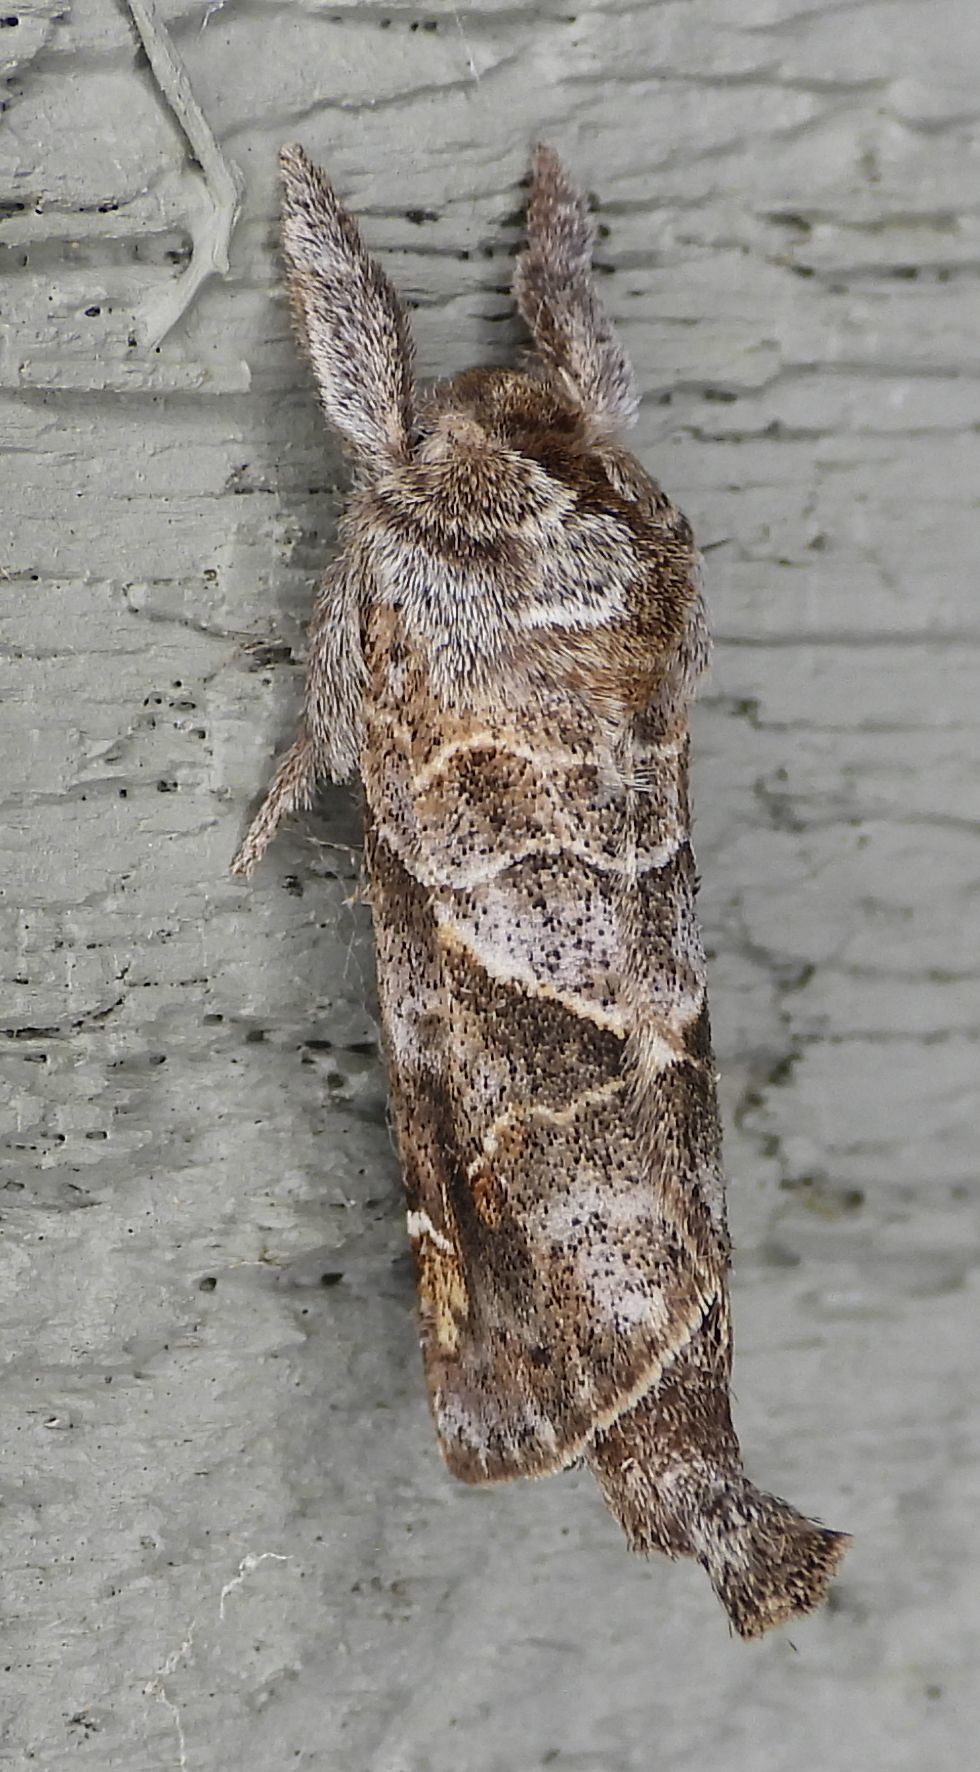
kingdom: Animalia
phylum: Arthropoda
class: Insecta
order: Lepidoptera
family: Notodontidae
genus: Clostera
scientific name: Clostera strigosa
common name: Striped chocolate-tip moth
